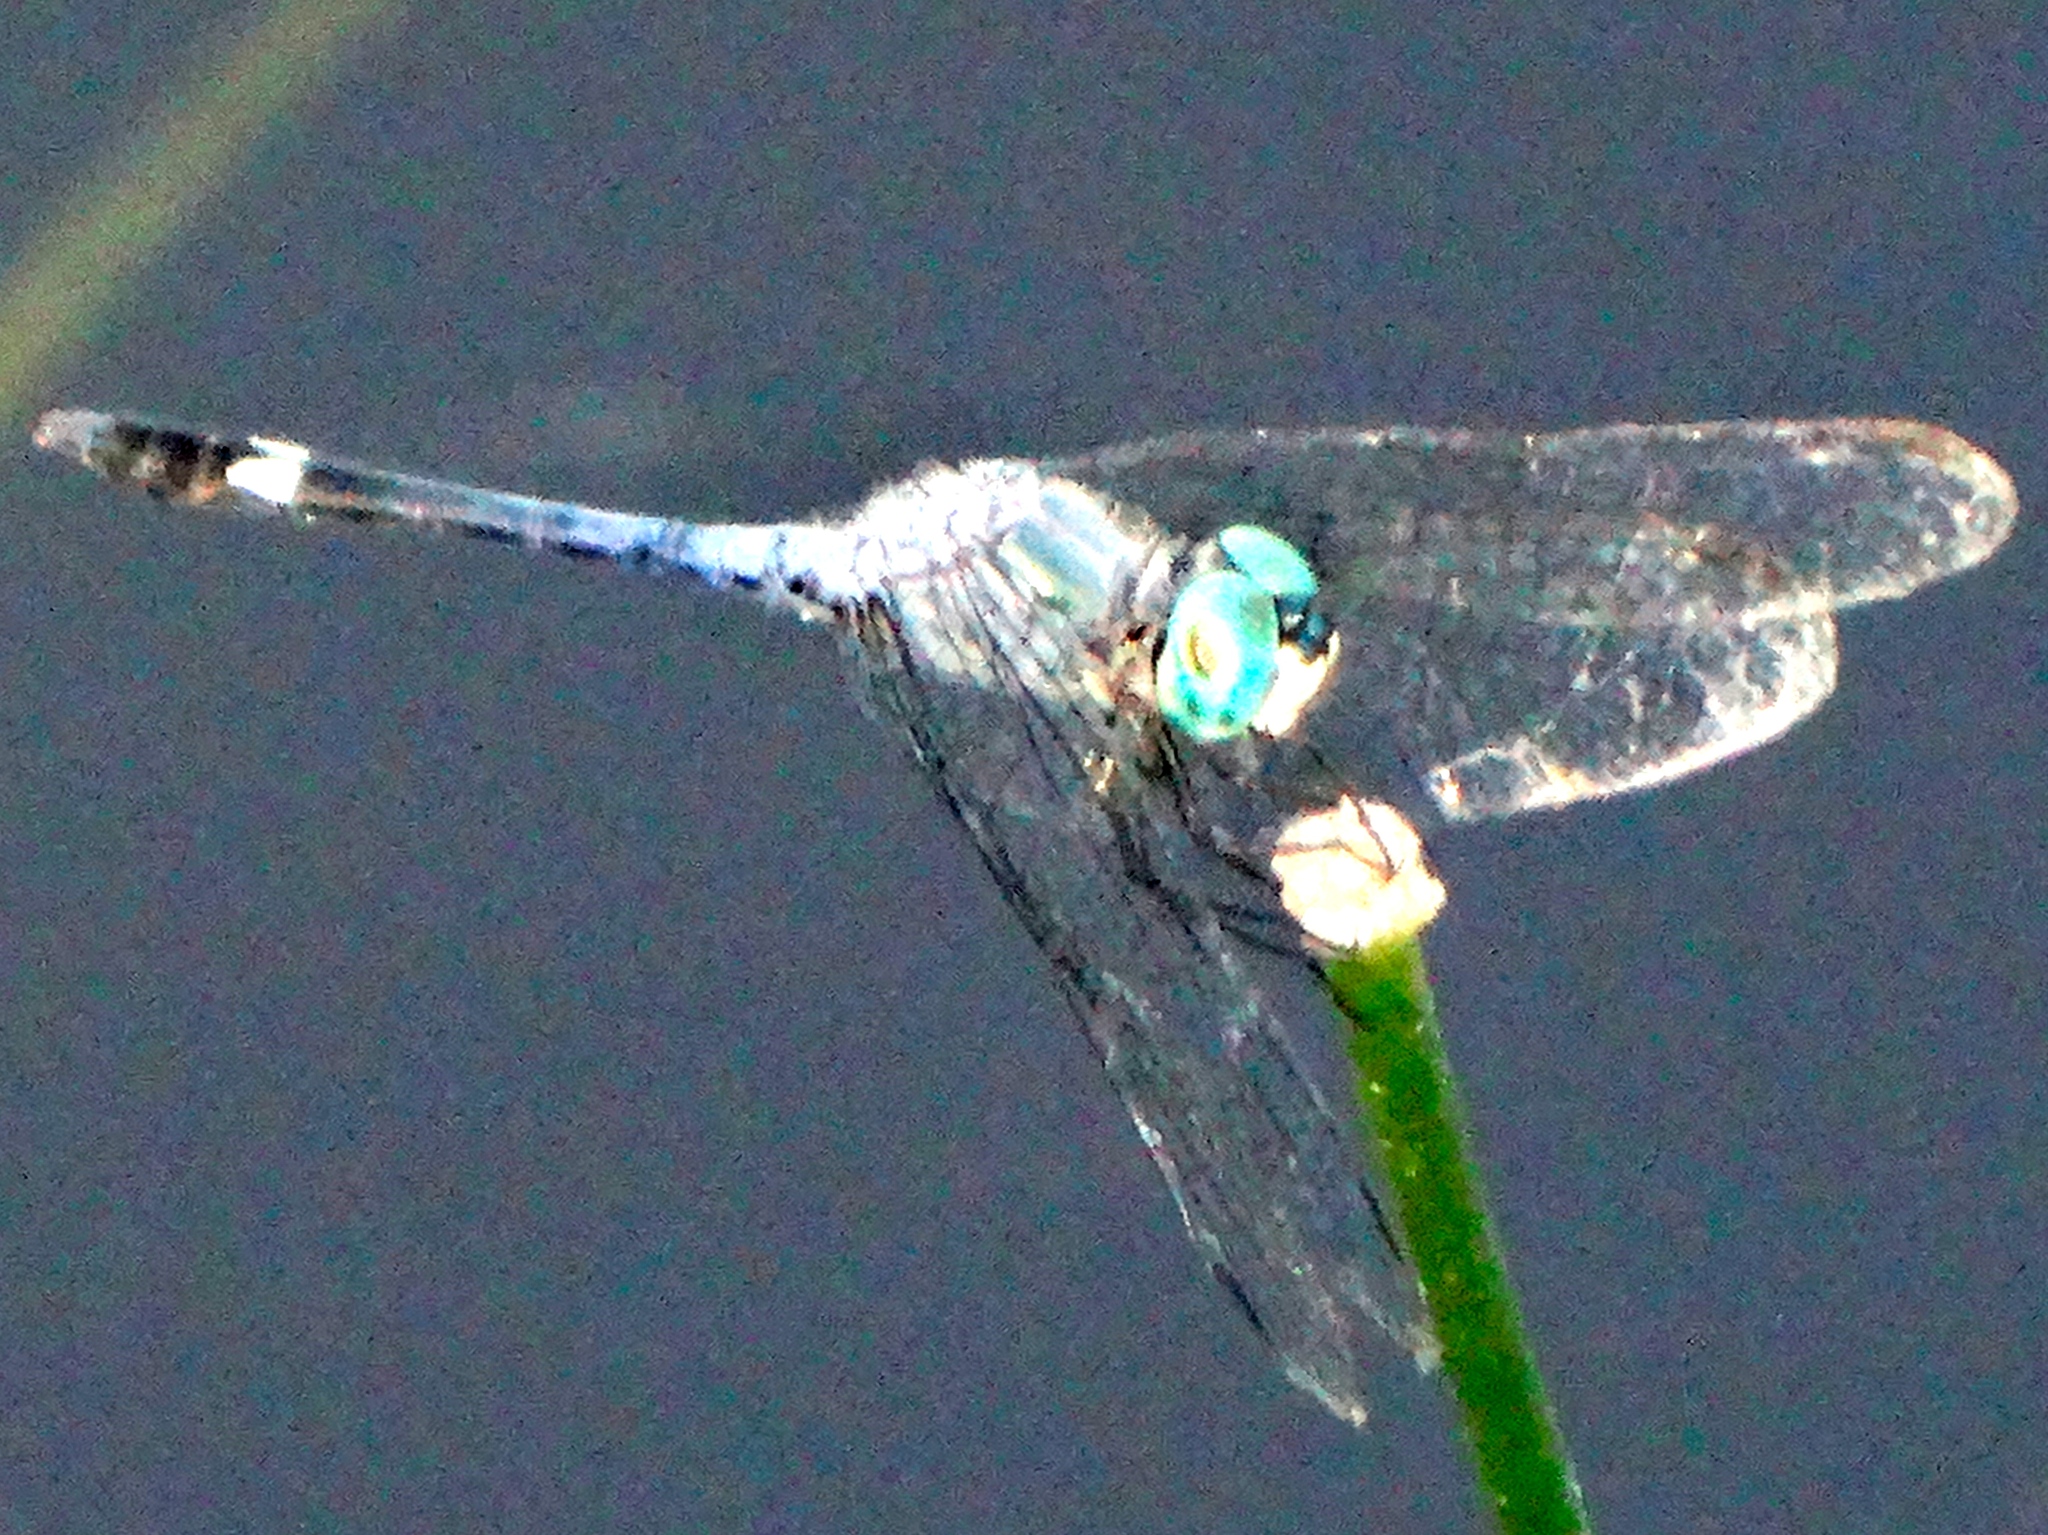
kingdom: Animalia
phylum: Arthropoda
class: Insecta
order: Odonata
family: Libellulidae
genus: Micrathyria
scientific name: Micrathyria
